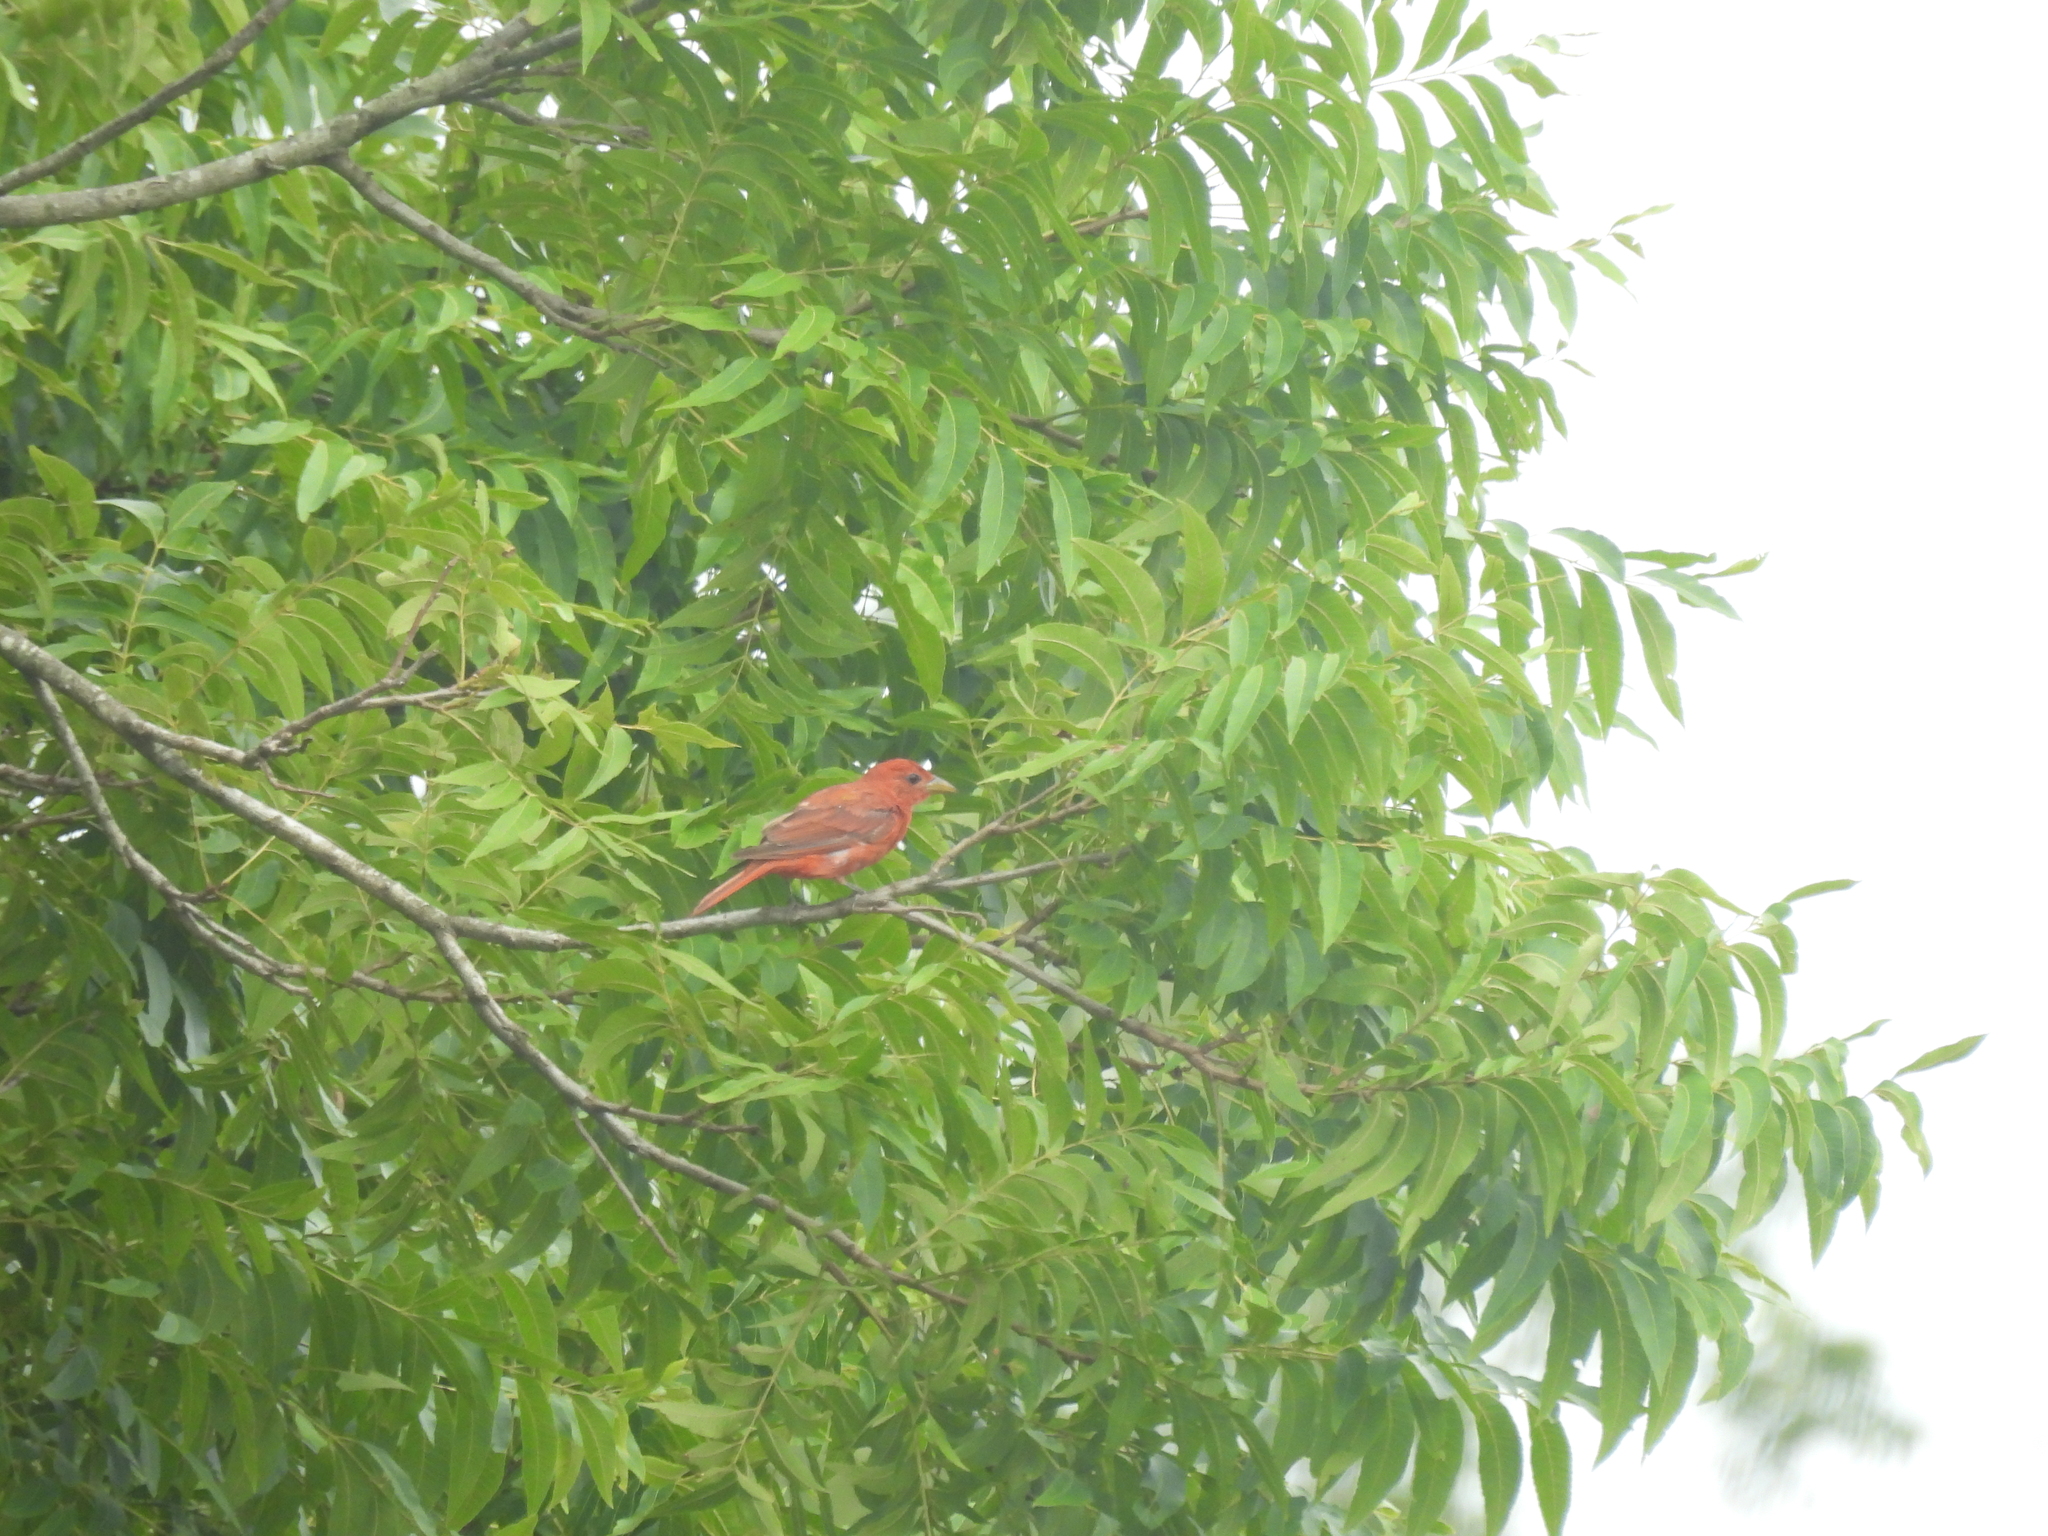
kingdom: Animalia
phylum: Chordata
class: Aves
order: Passeriformes
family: Cardinalidae
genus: Piranga
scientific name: Piranga rubra
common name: Summer tanager
